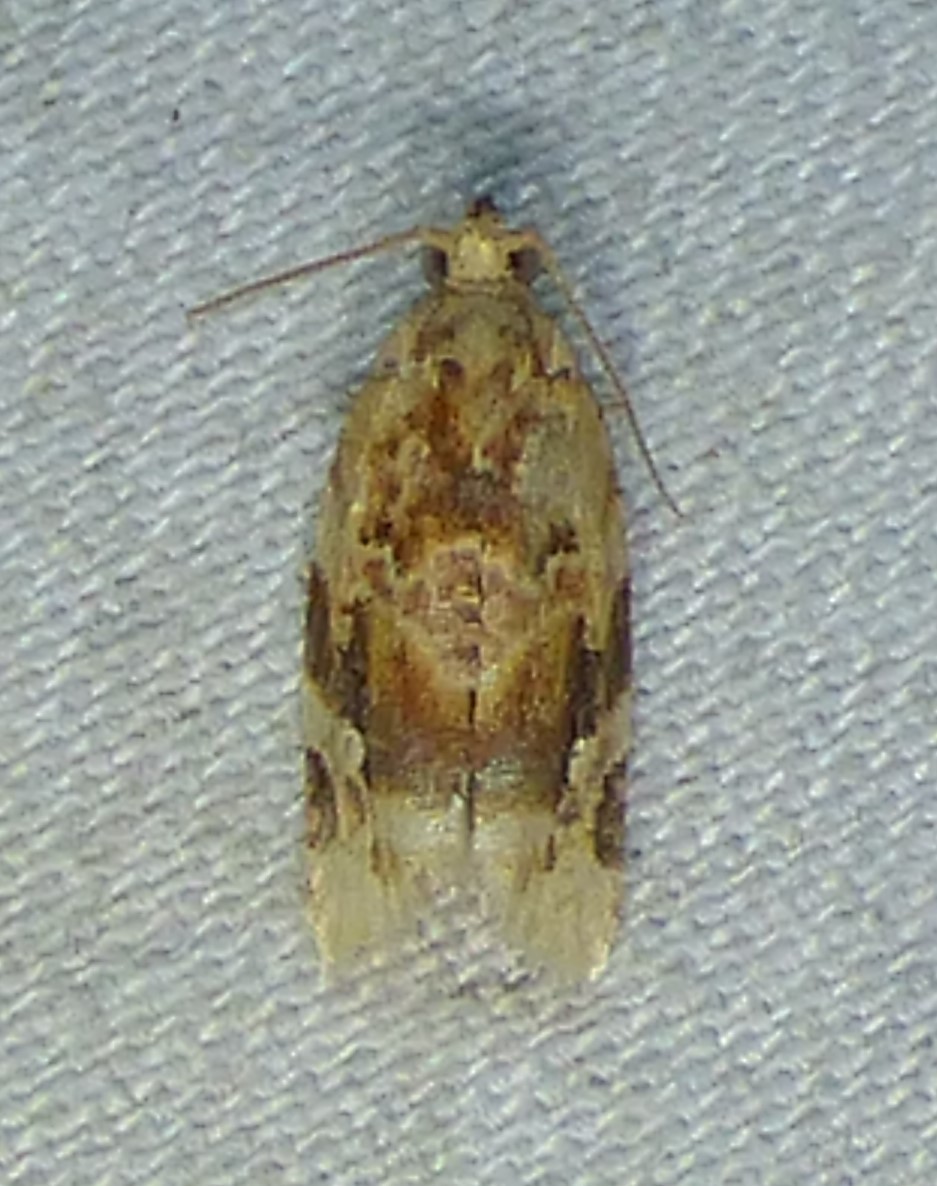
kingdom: Animalia
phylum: Arthropoda
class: Insecta
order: Lepidoptera
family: Tortricidae
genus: Argyrotaenia
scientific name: Argyrotaenia velutinana
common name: Red-banded leafroller moth
